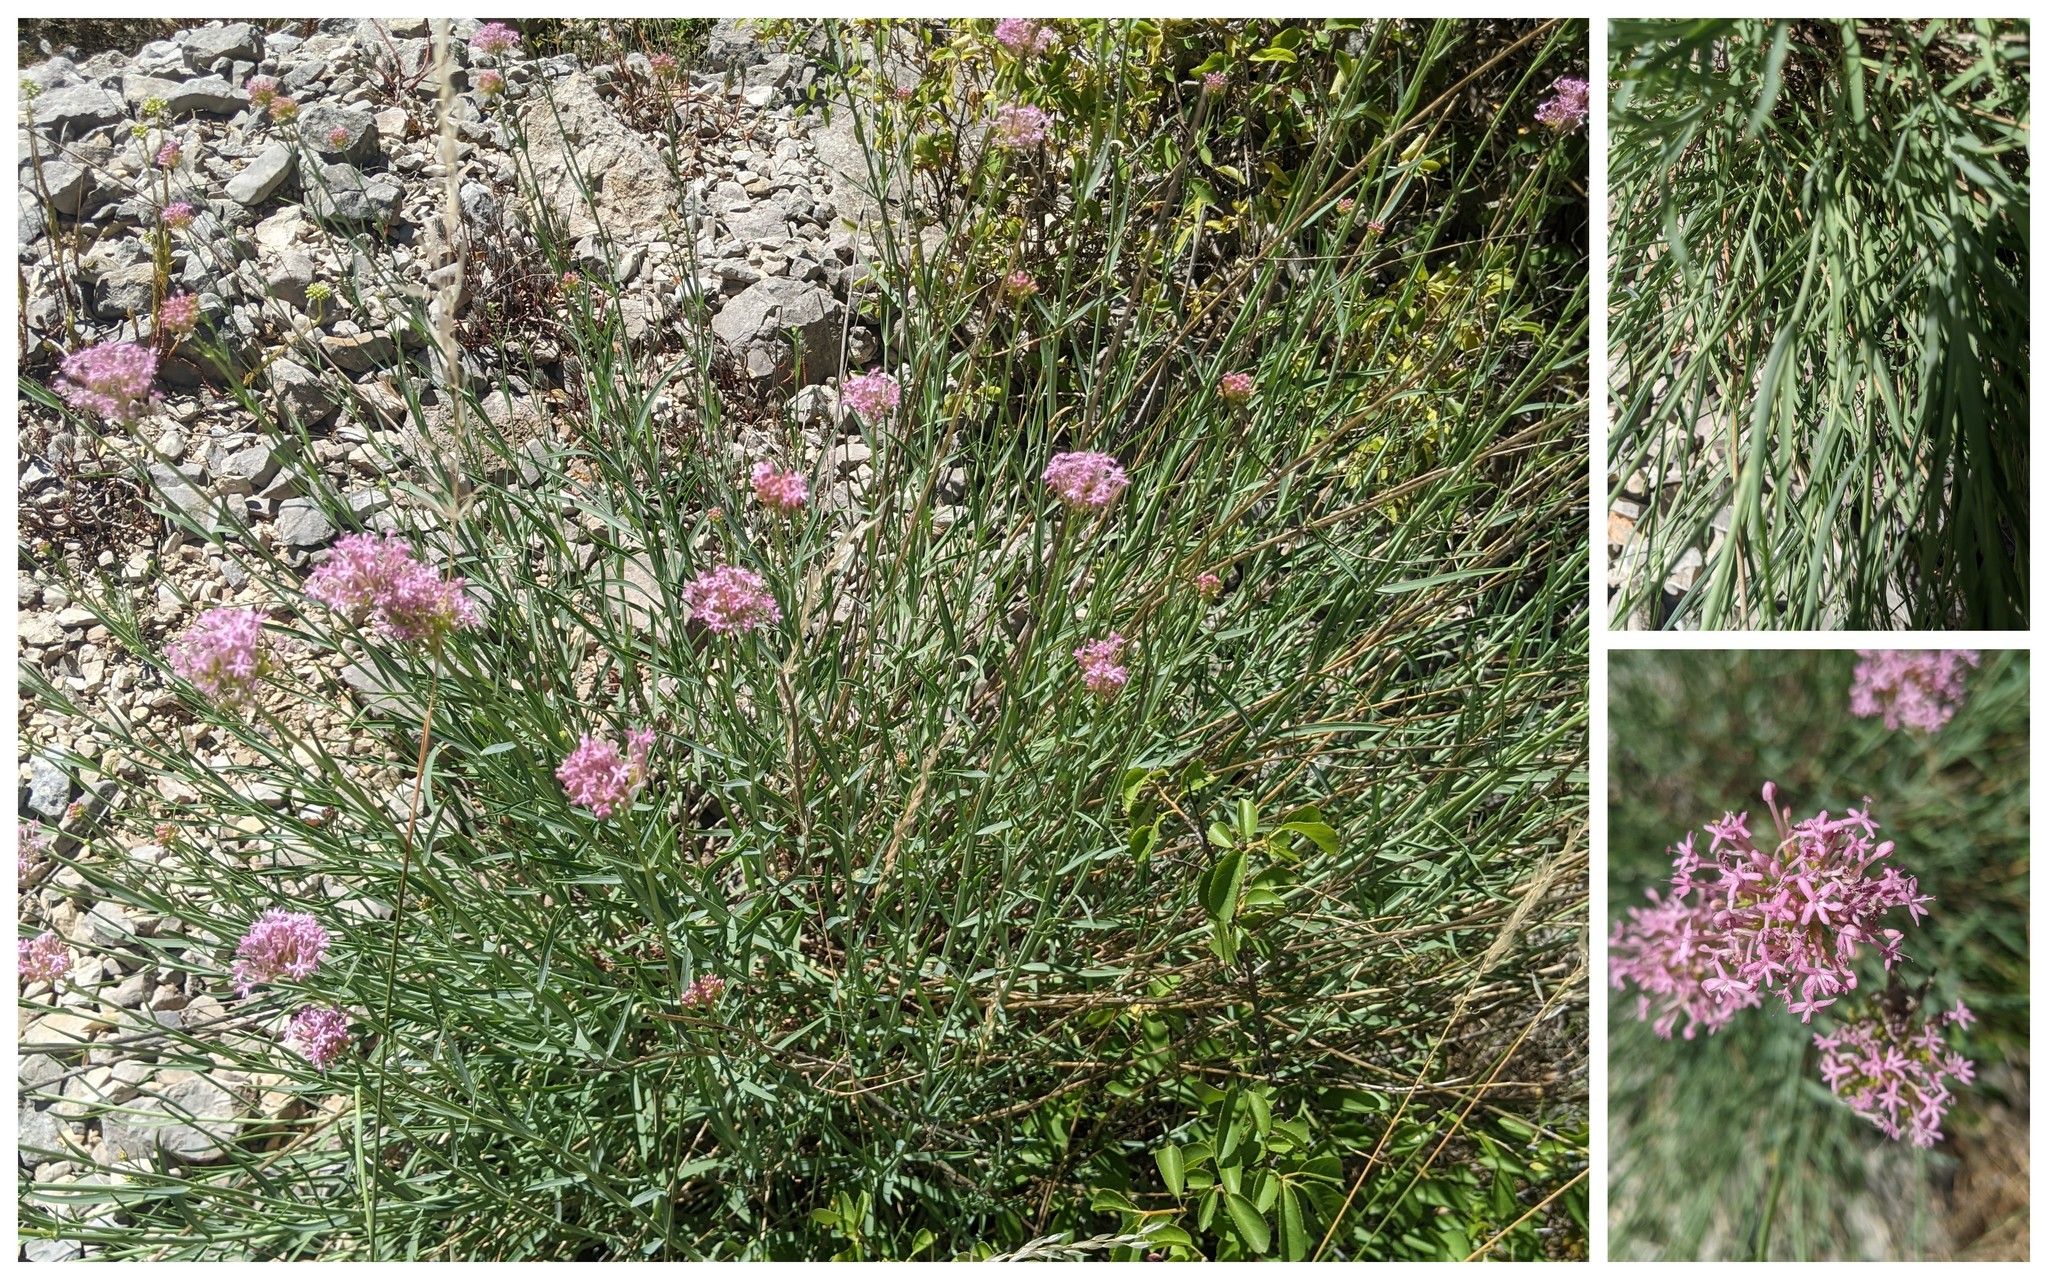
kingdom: Plantae
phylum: Tracheophyta
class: Magnoliopsida
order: Dipsacales
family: Caprifoliaceae
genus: Centranthus
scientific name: Centranthus lecoqii
